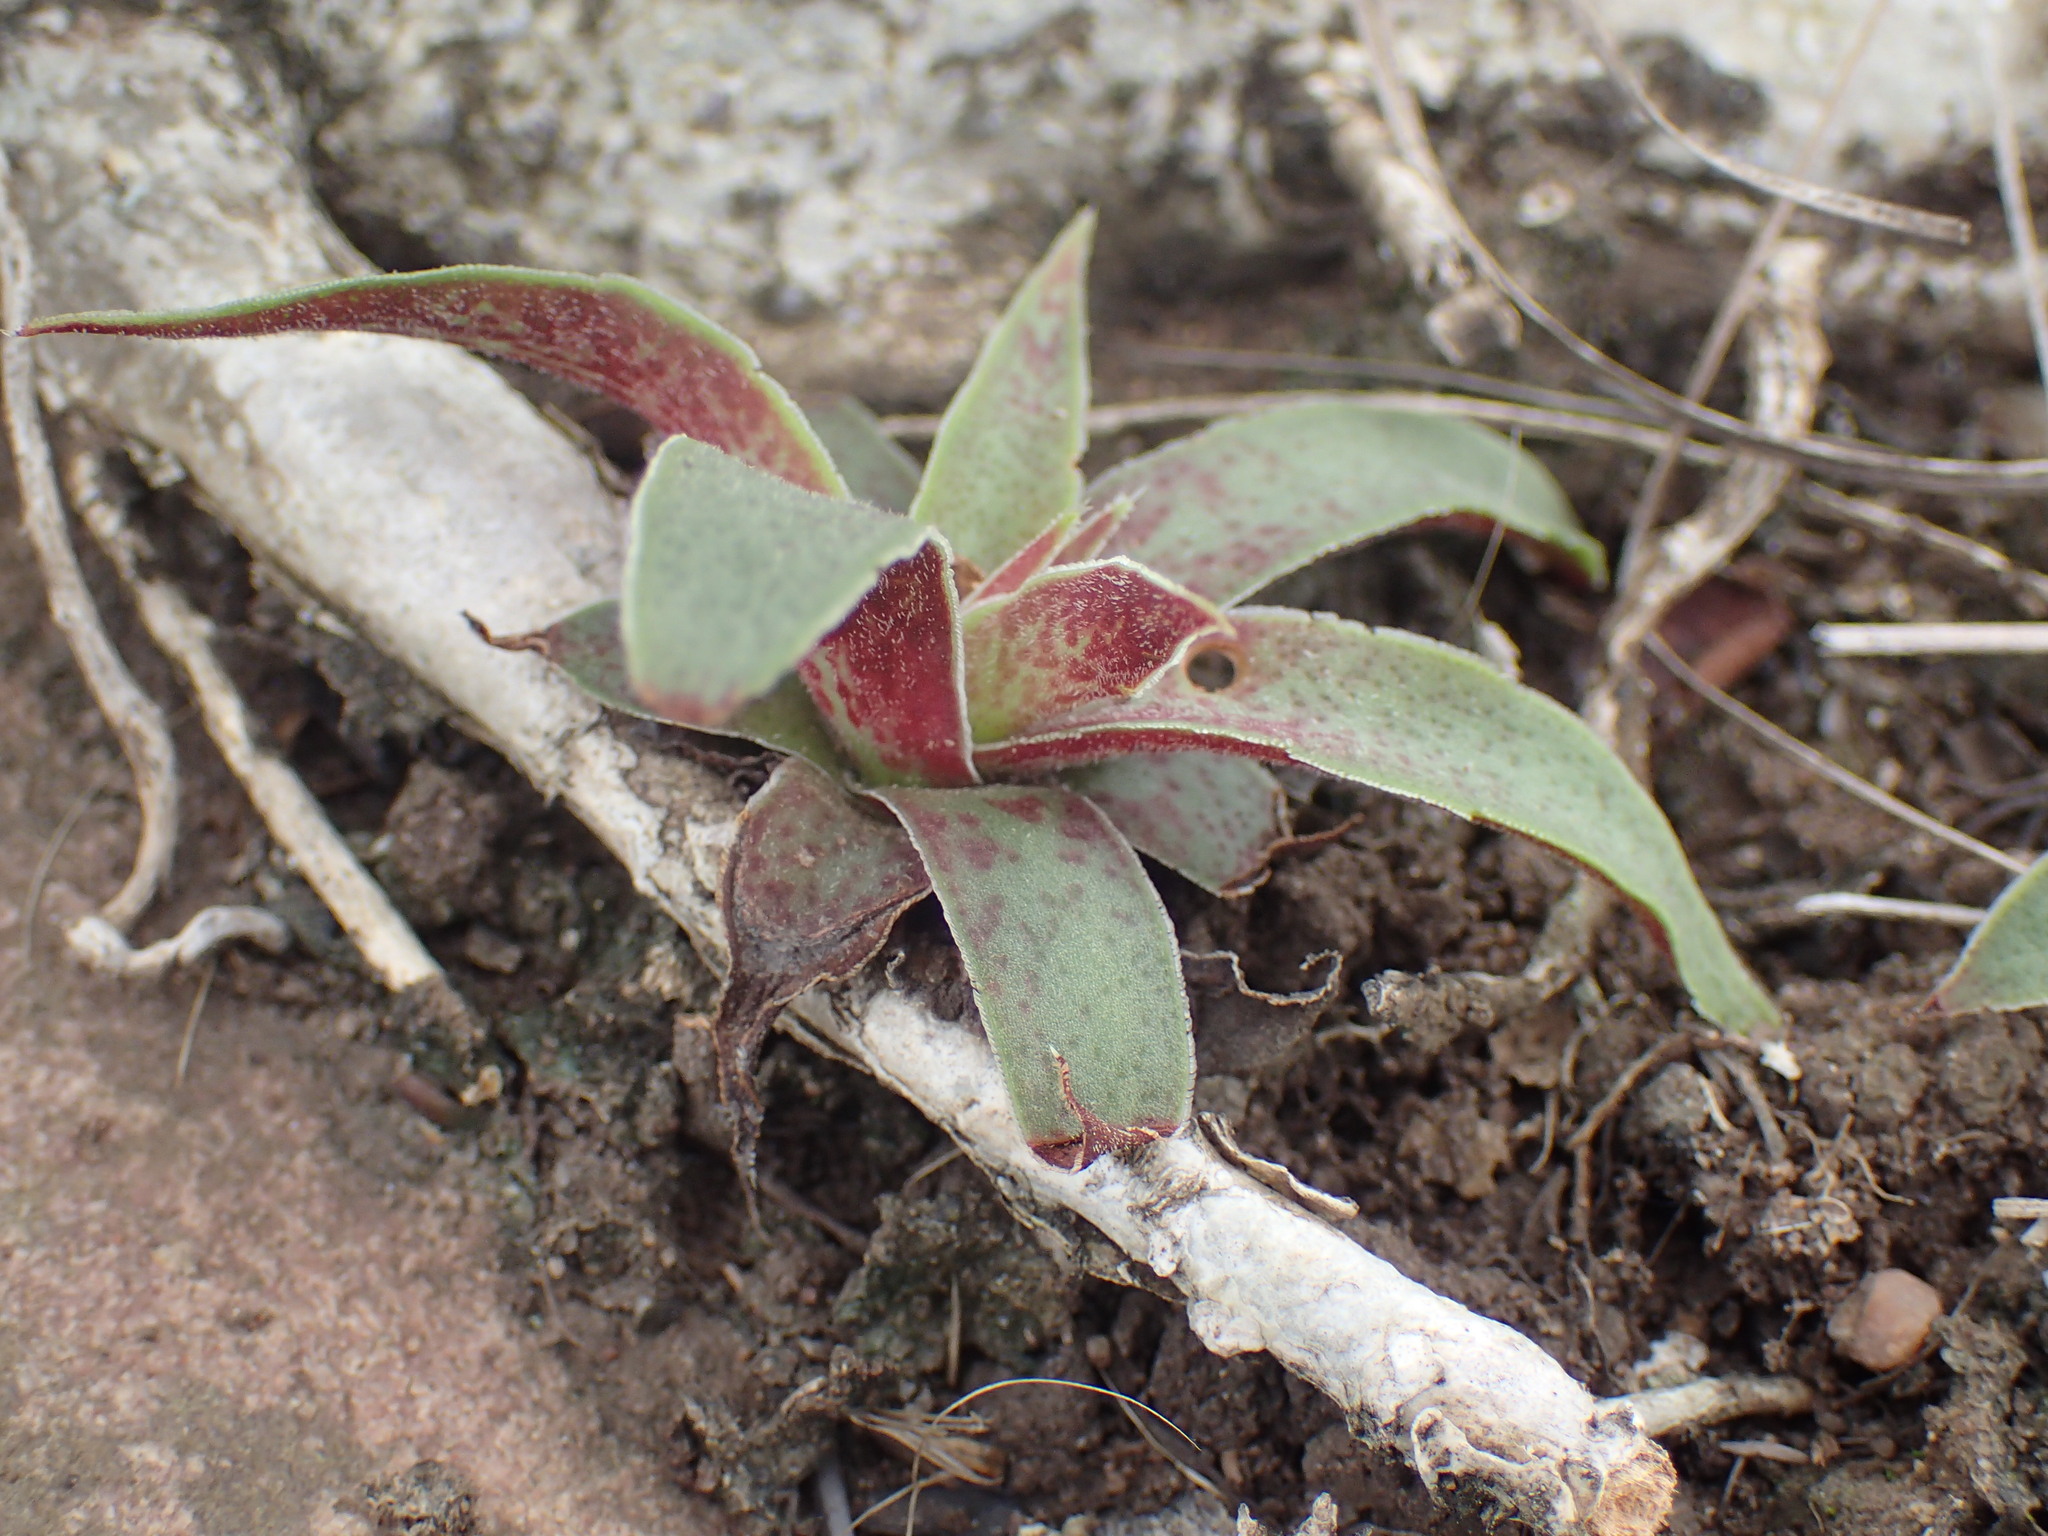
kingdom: Plantae
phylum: Tracheophyta
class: Magnoliopsida
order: Saxifragales
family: Crassulaceae
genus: Crassula
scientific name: Crassula alba
